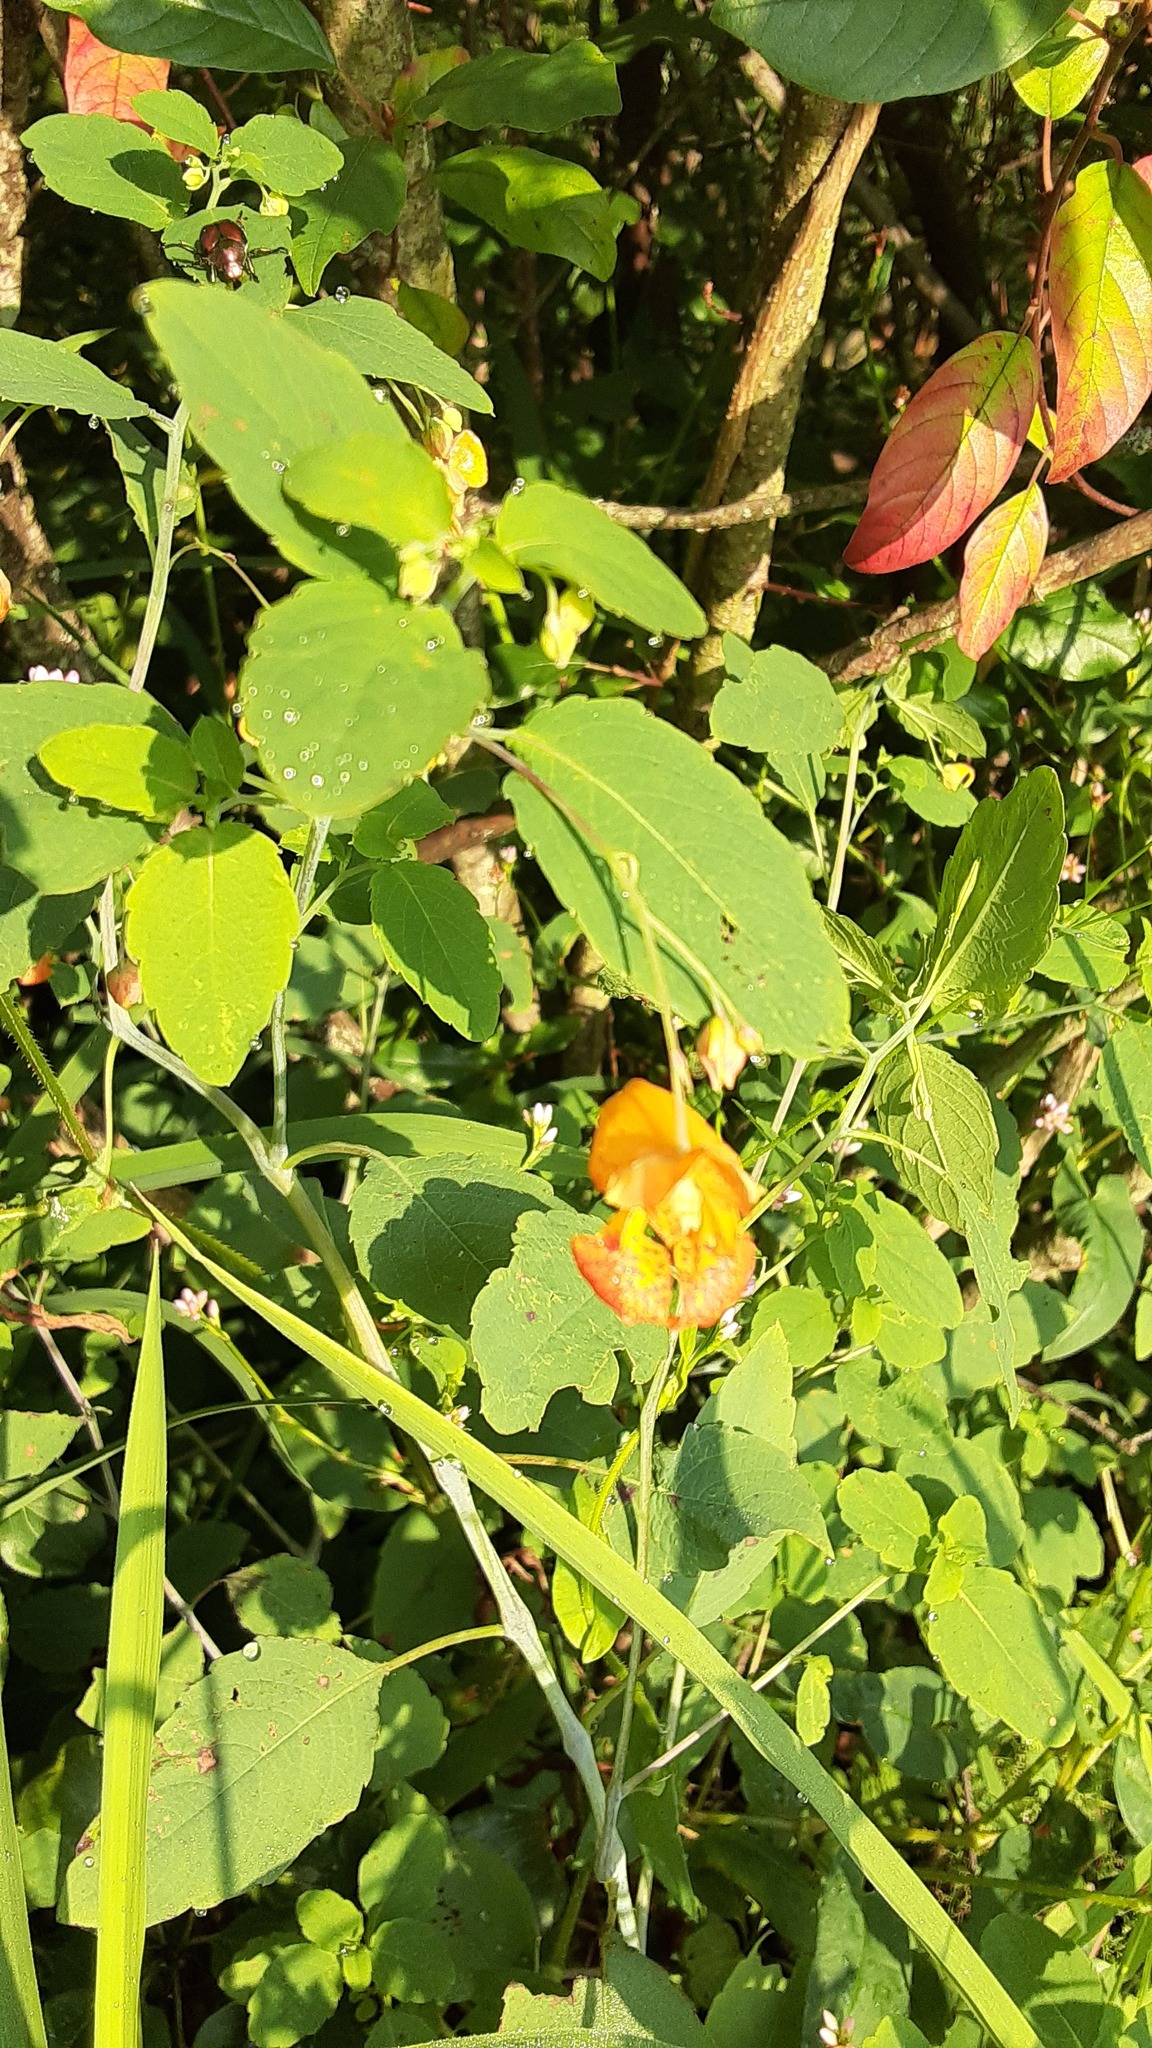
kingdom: Plantae
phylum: Tracheophyta
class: Magnoliopsida
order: Ericales
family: Balsaminaceae
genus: Impatiens
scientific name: Impatiens capensis
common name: Orange balsam
